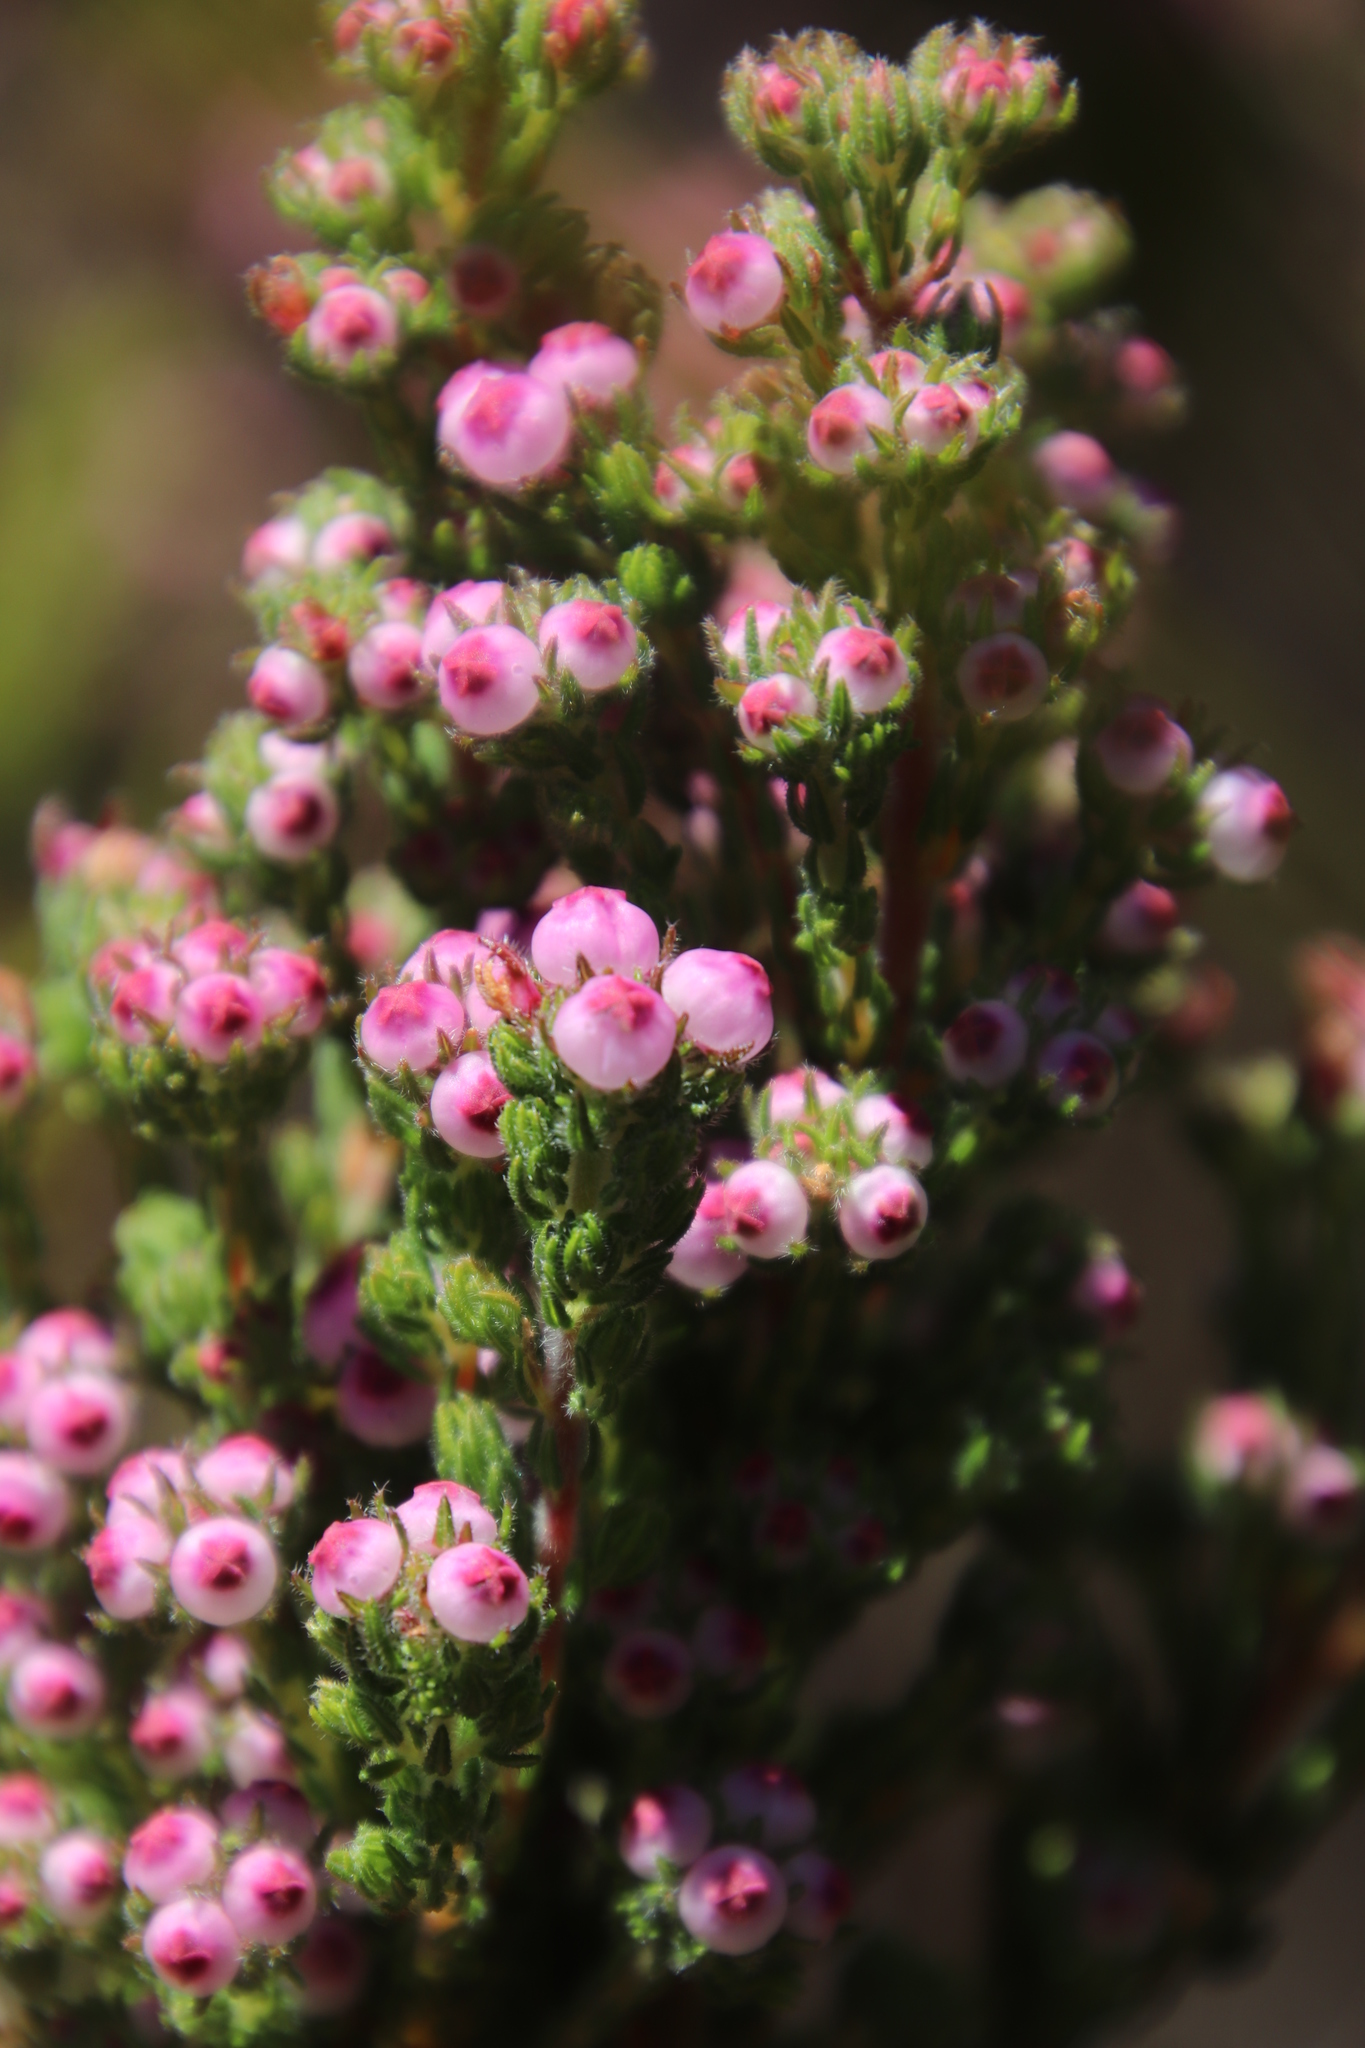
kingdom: Plantae
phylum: Tracheophyta
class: Magnoliopsida
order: Ericales
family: Ericaceae
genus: Erica
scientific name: Erica bergiana
